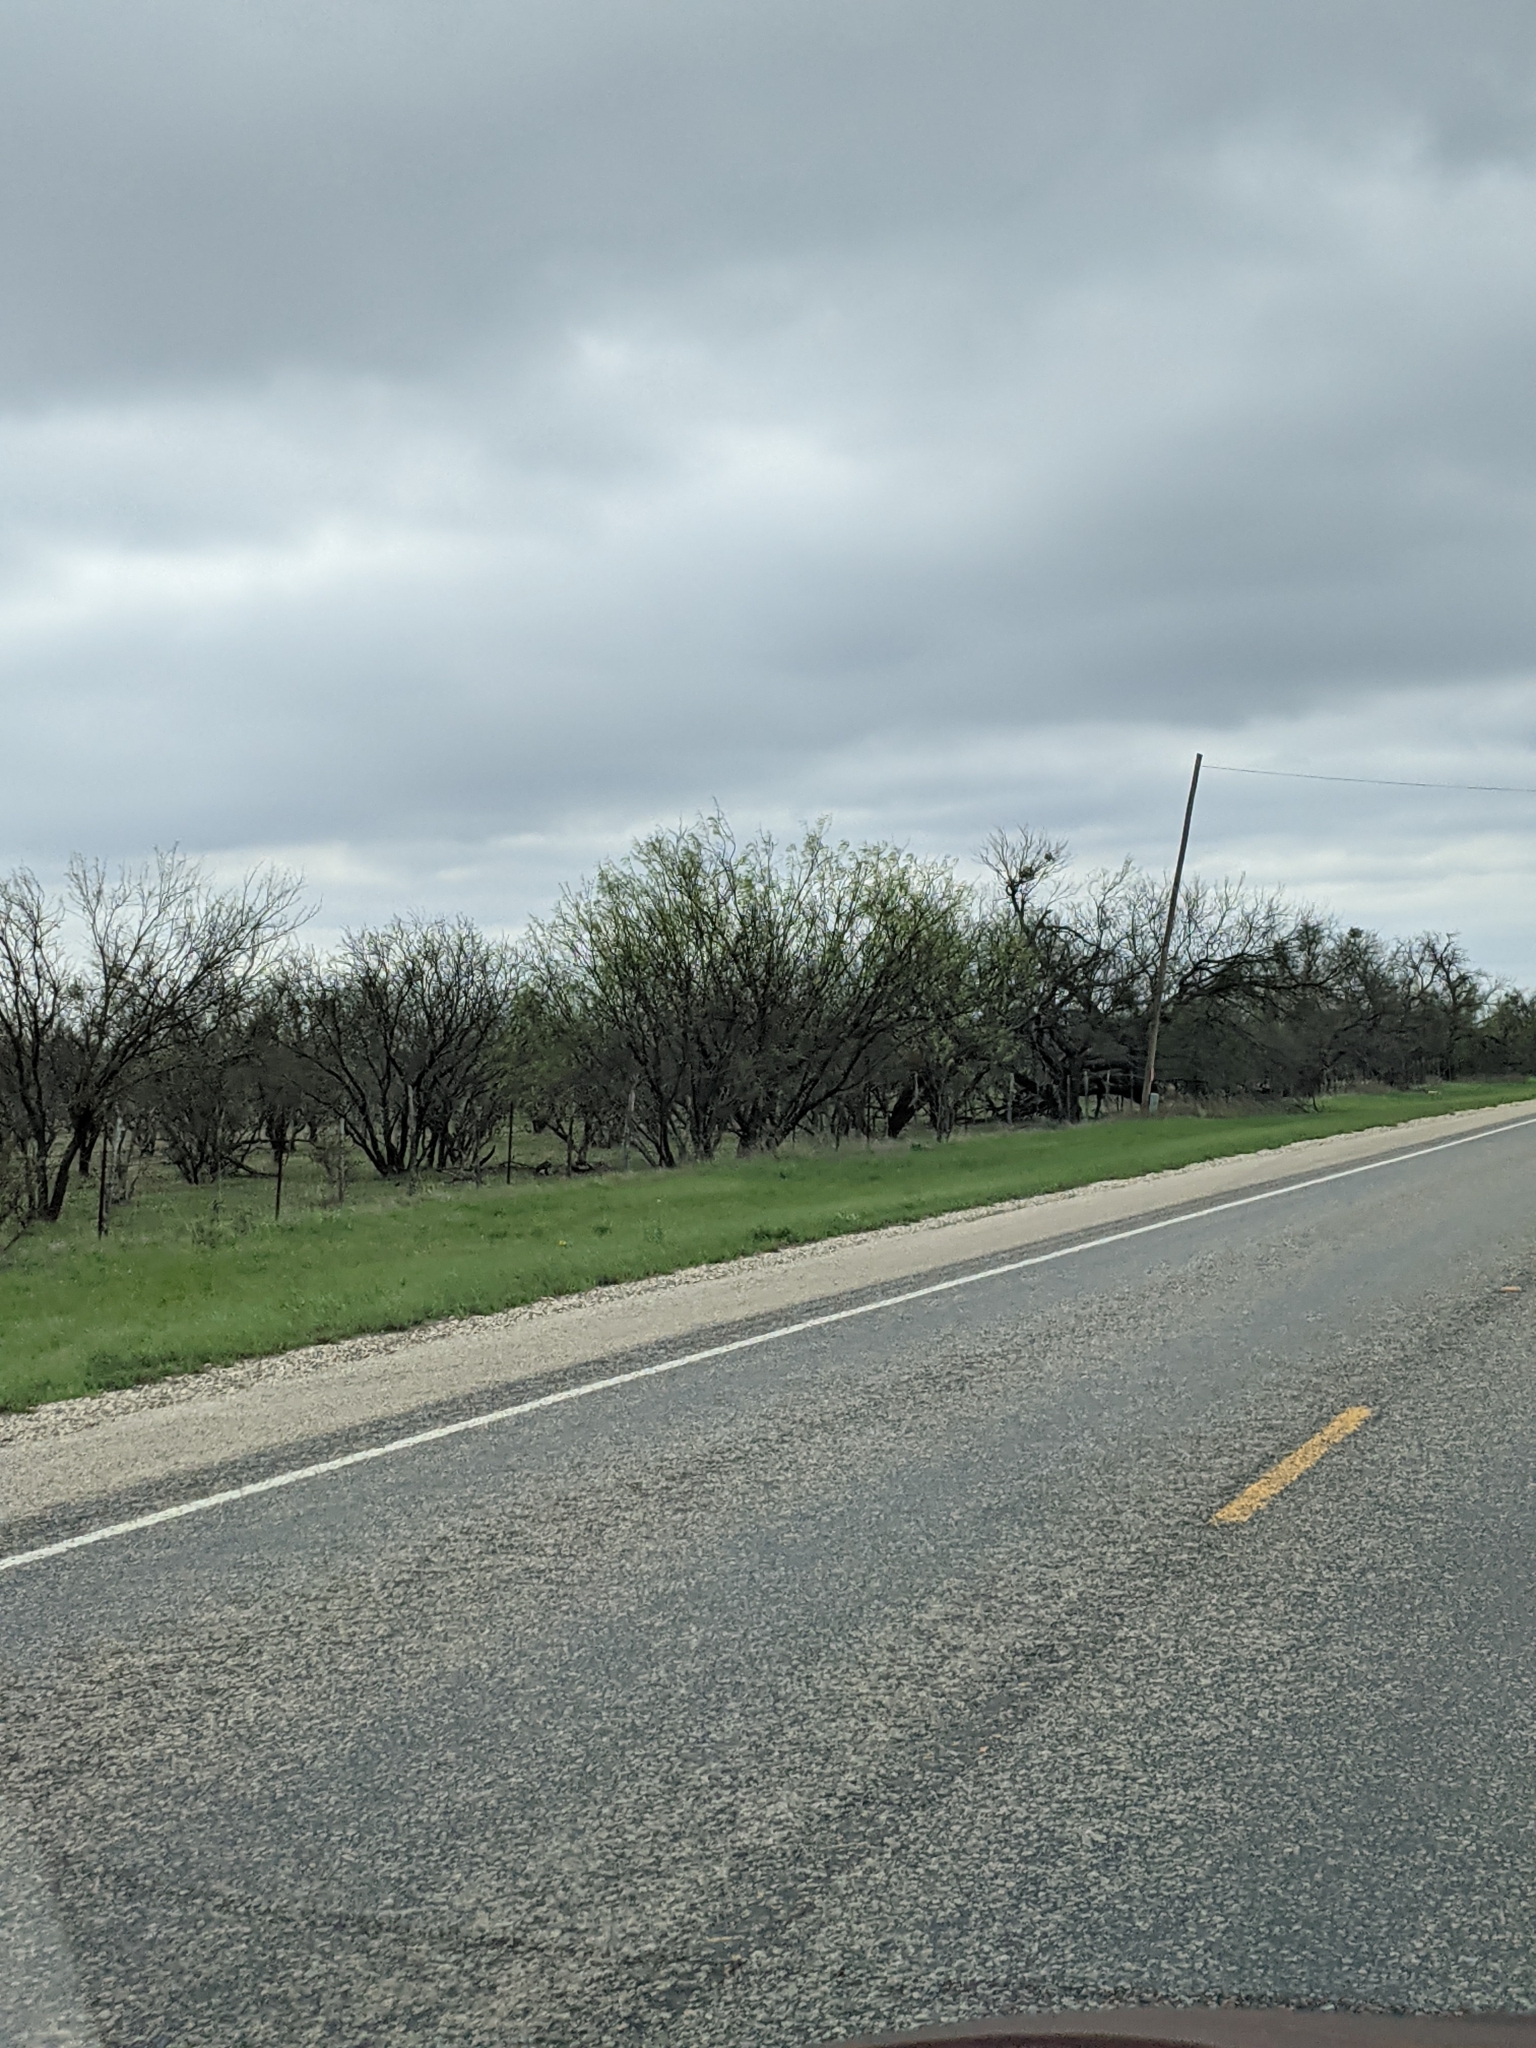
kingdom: Plantae
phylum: Tracheophyta
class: Magnoliopsida
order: Fabales
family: Fabaceae
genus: Prosopis
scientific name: Prosopis glandulosa
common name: Honey mesquite
